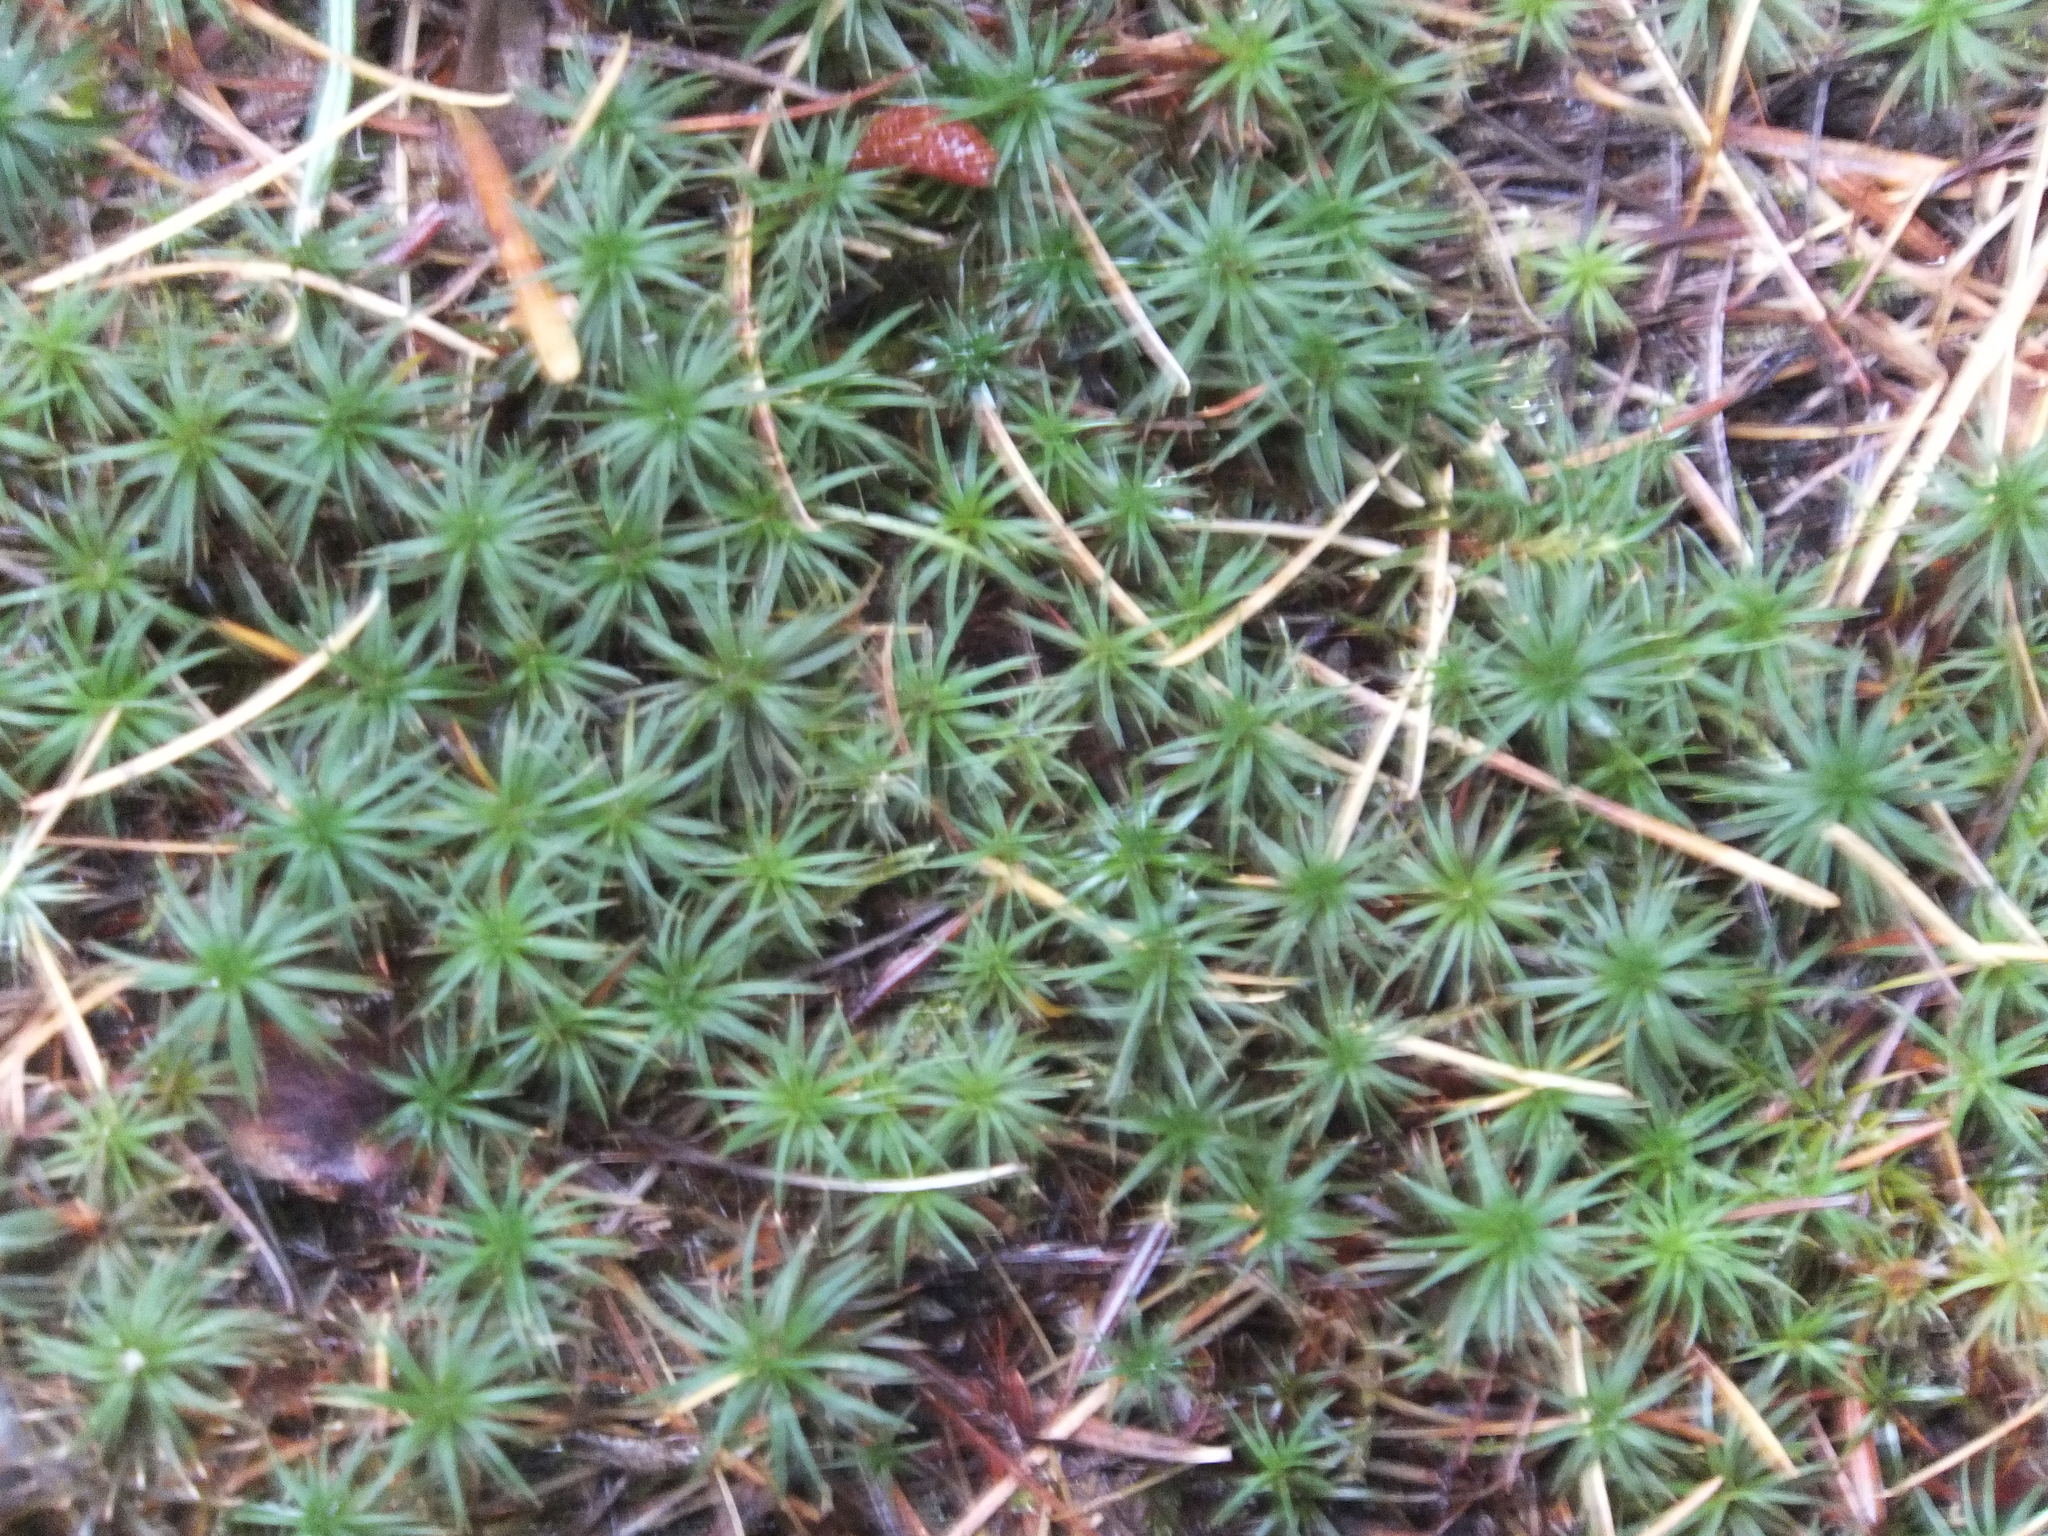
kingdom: Plantae
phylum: Bryophyta
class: Polytrichopsida
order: Polytrichales
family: Polytrichaceae
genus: Polytrichum
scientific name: Polytrichum juniperinum
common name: Juniper haircap moss
